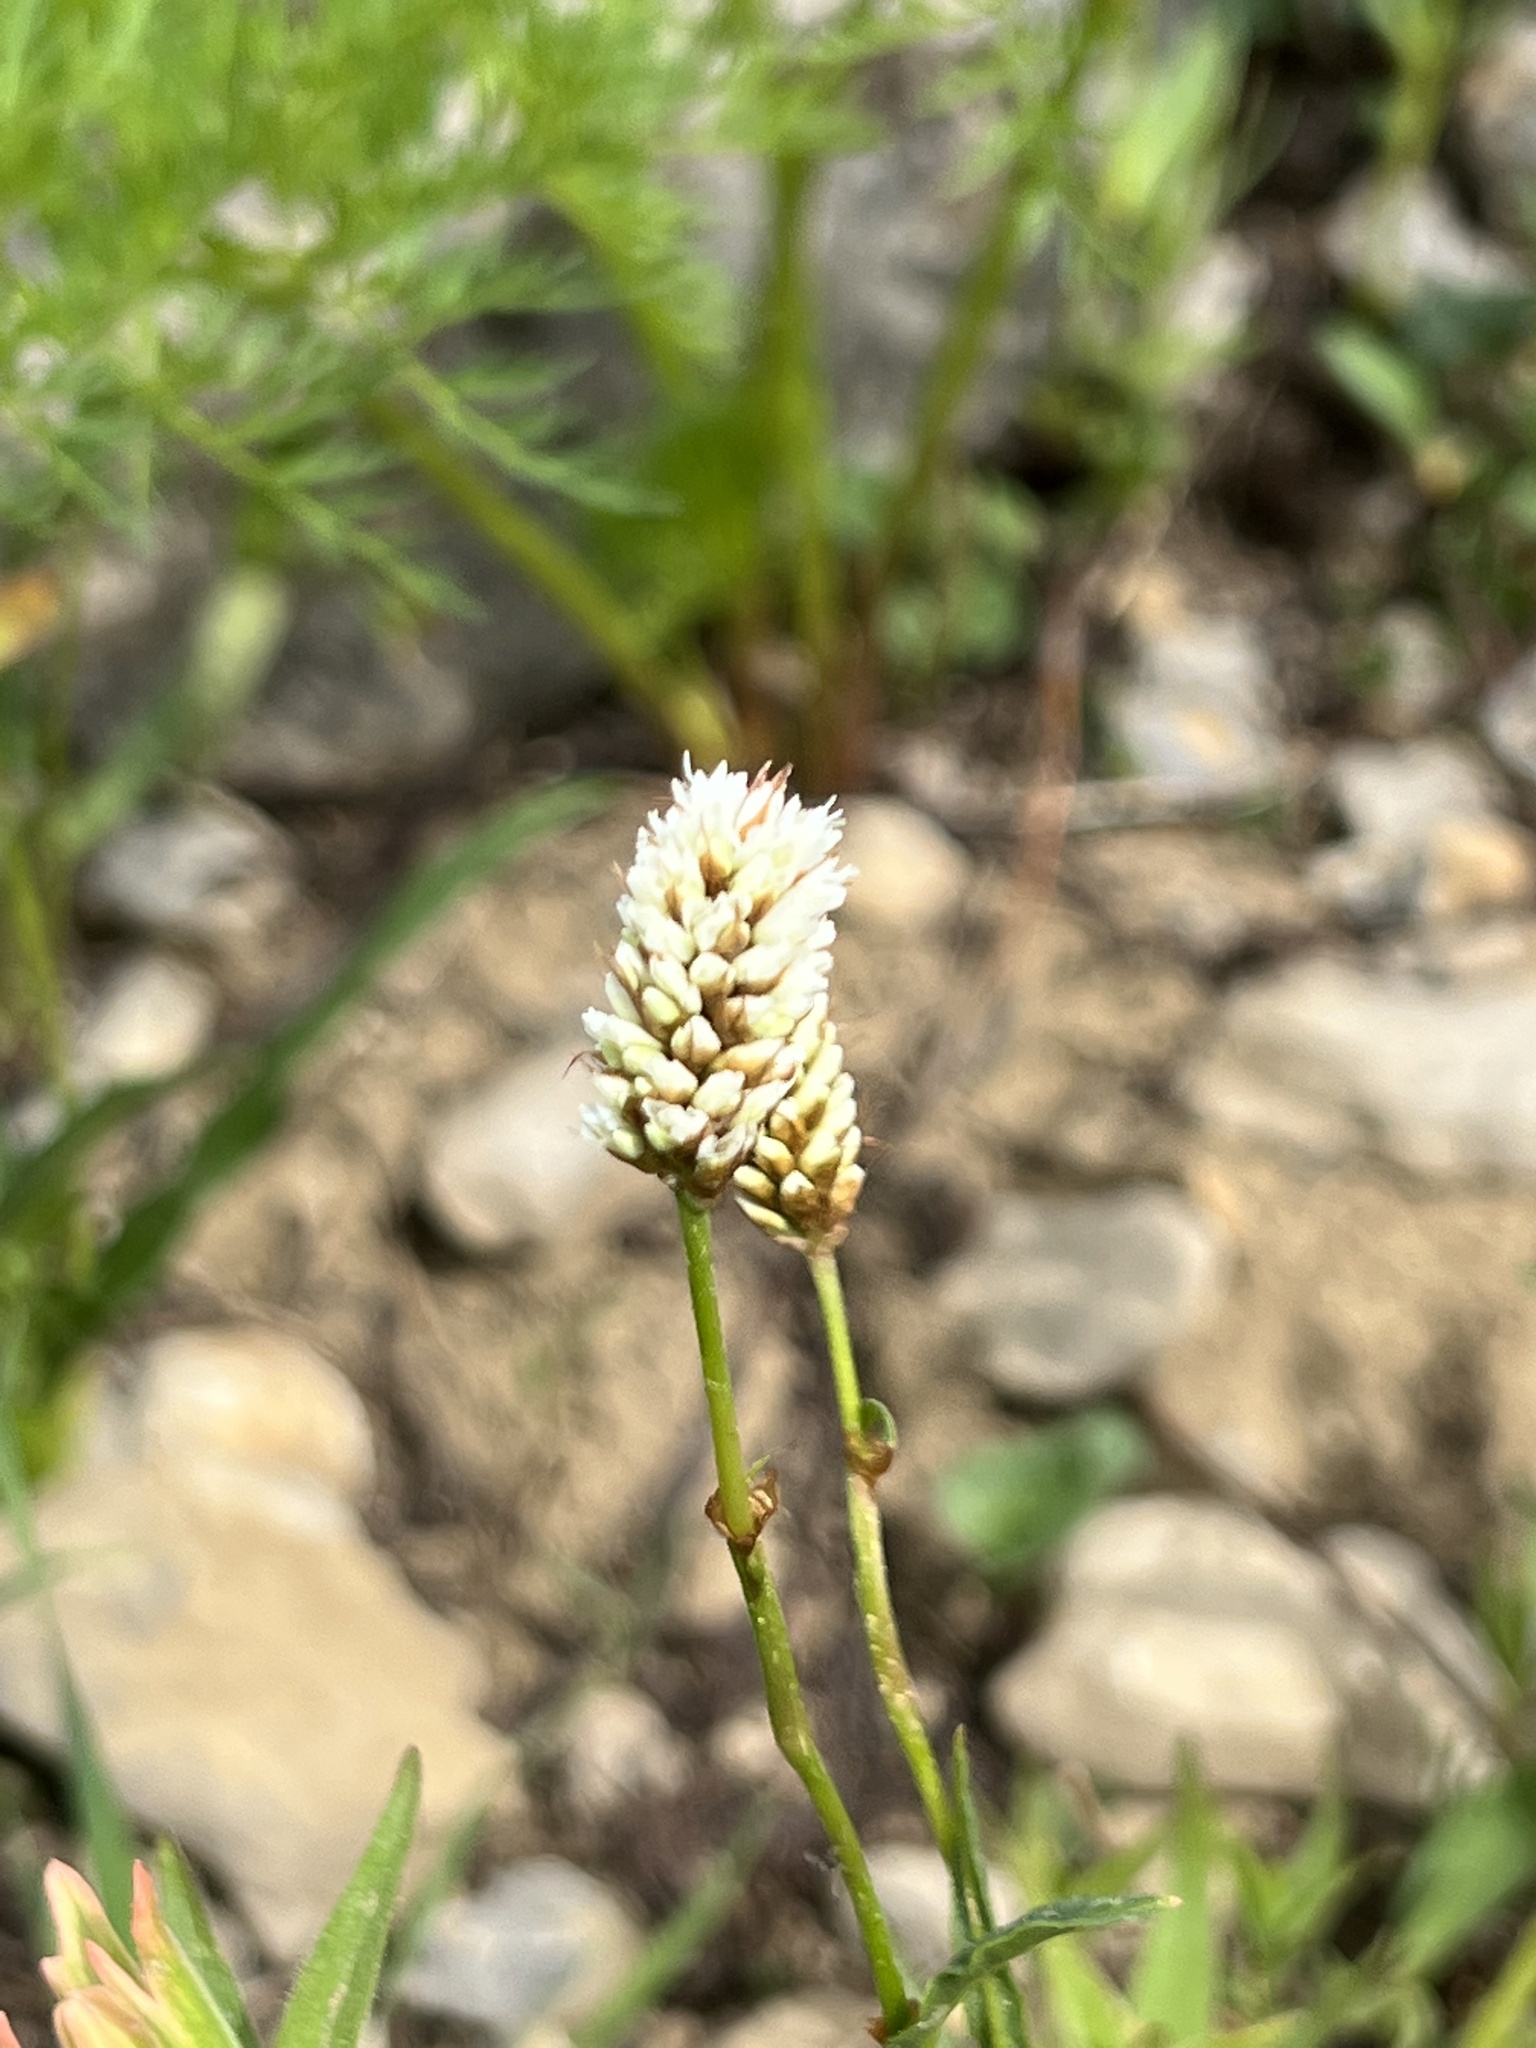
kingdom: Plantae
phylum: Tracheophyta
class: Magnoliopsida
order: Caryophyllales
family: Polygonaceae
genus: Bistorta
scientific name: Bistorta bistortoides
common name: American bistort
